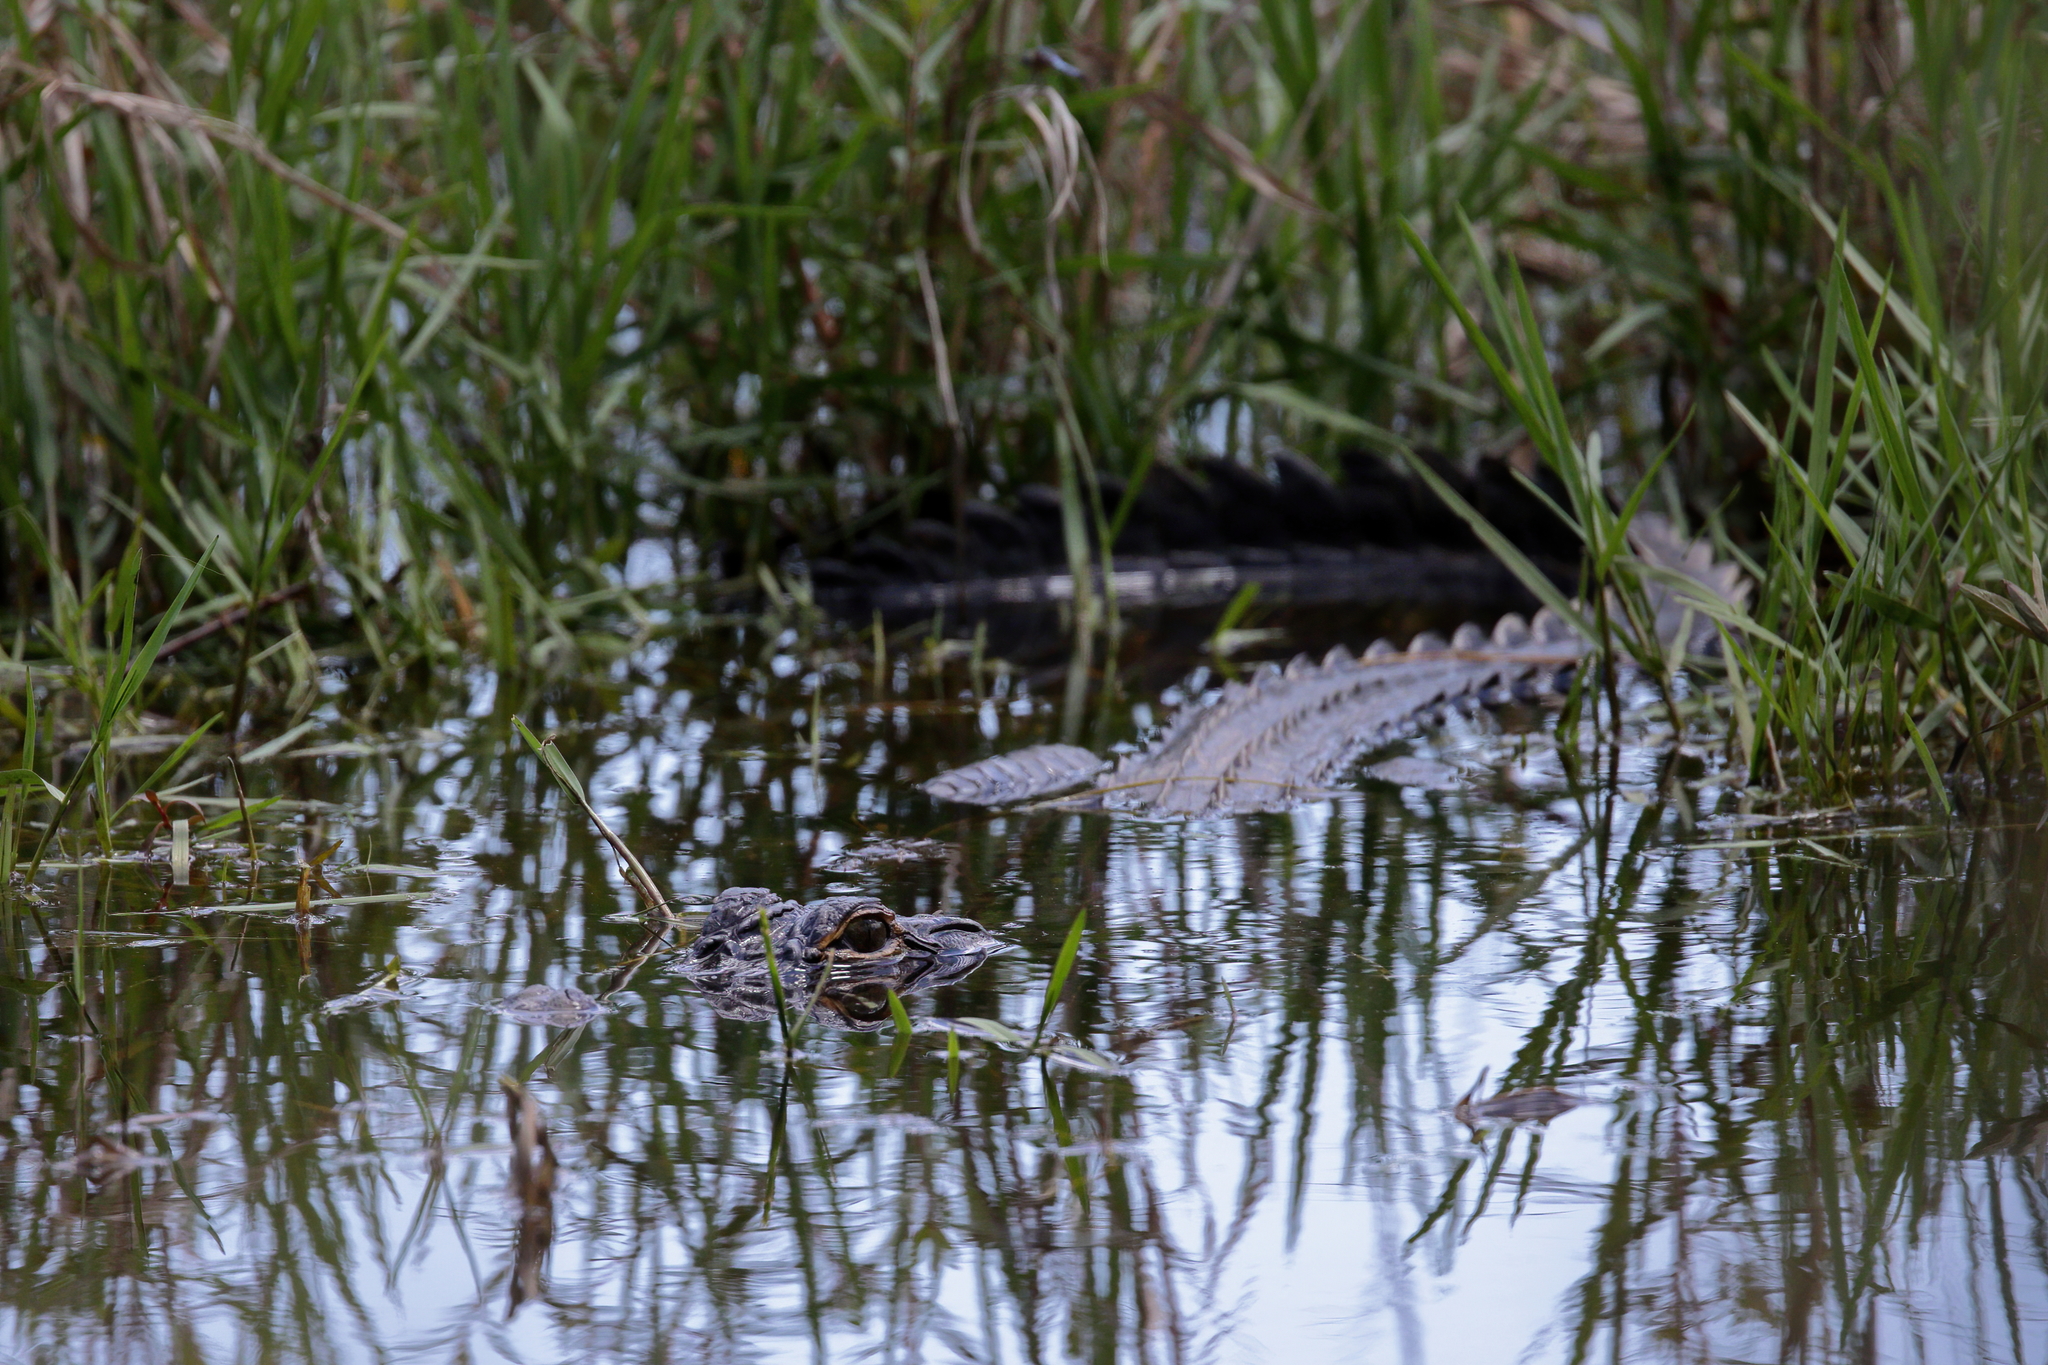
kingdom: Animalia
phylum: Chordata
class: Crocodylia
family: Alligatoridae
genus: Alligator
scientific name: Alligator mississippiensis
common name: American alligator
